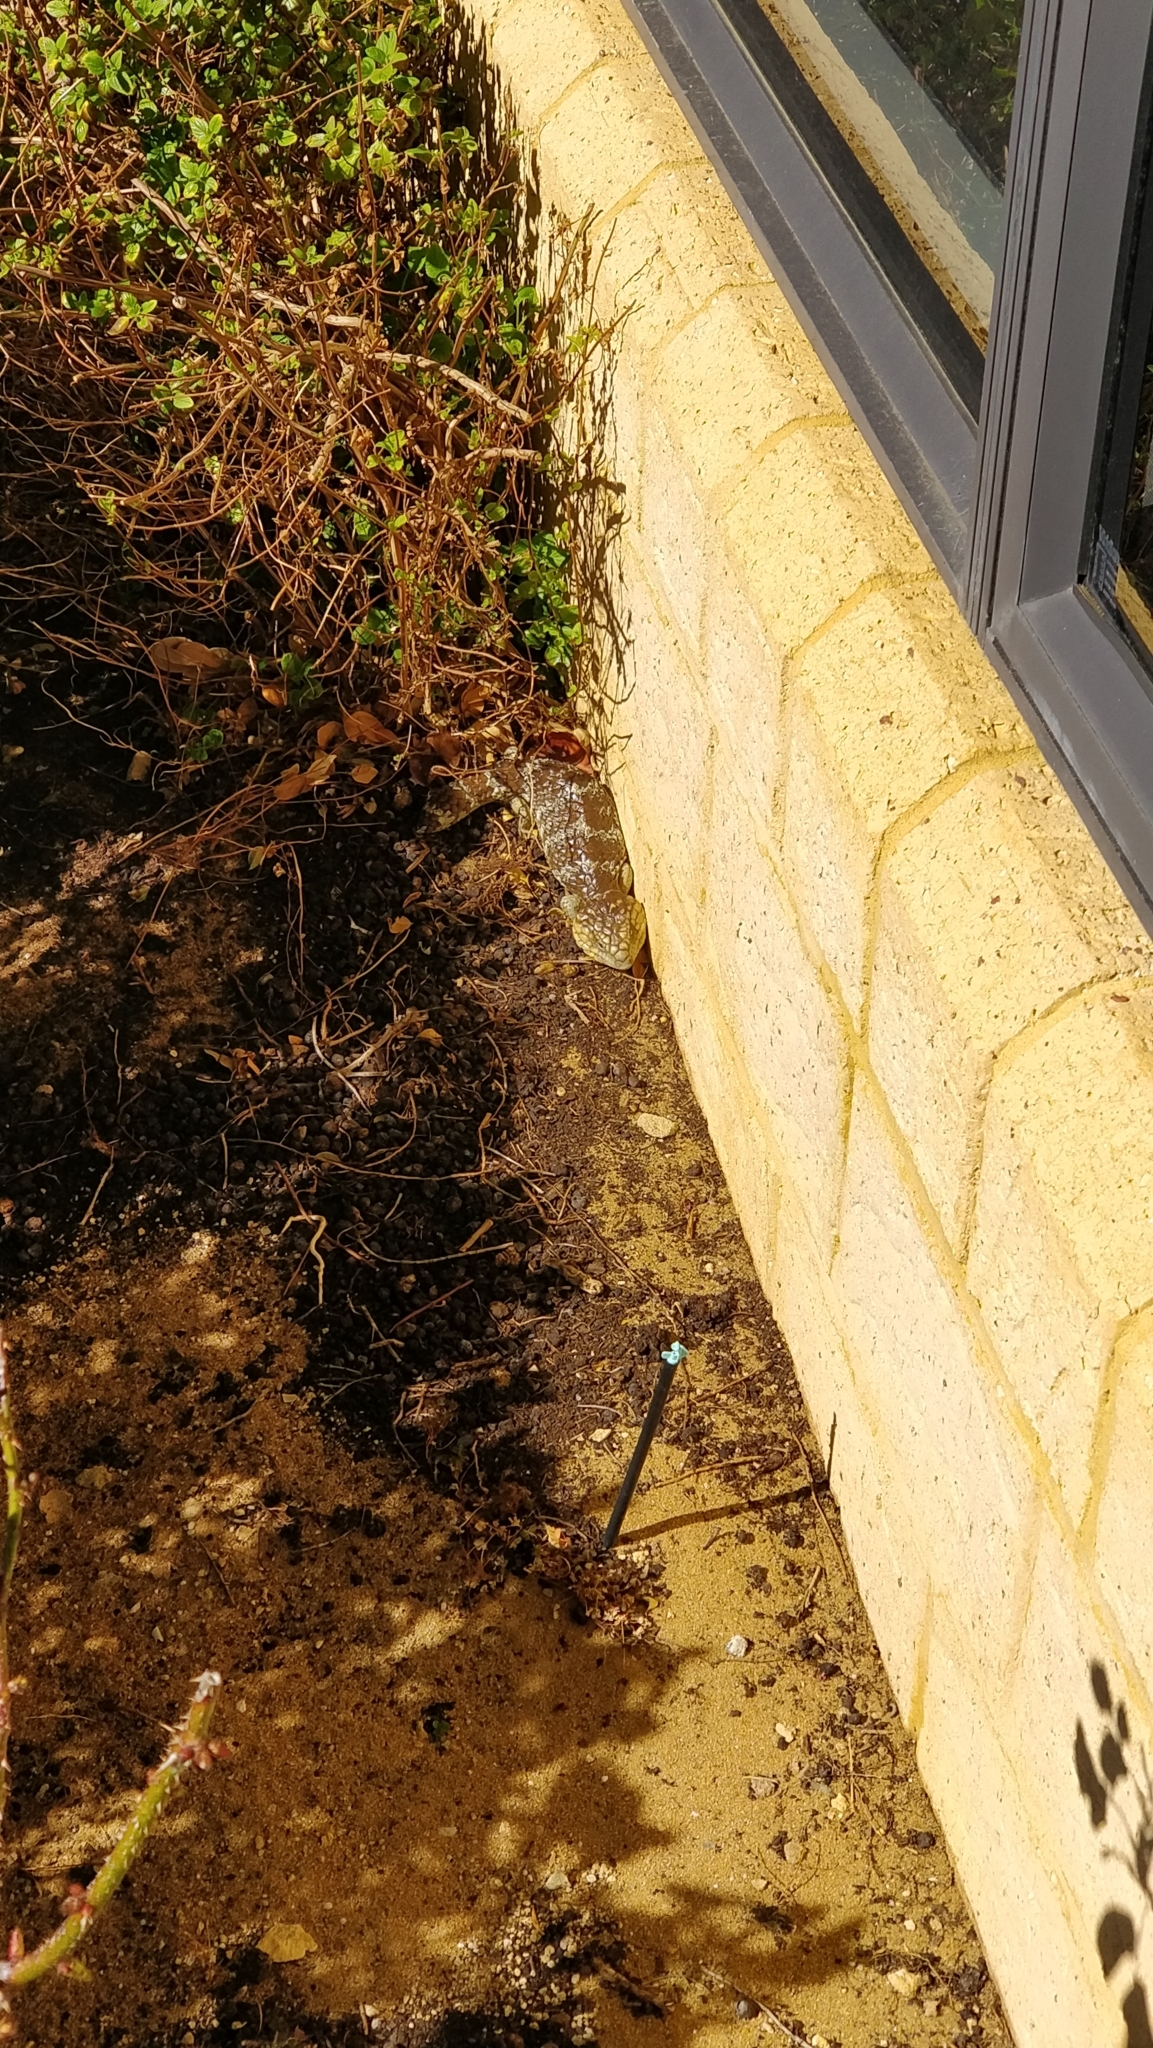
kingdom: Animalia
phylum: Chordata
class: Squamata
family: Scincidae
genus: Tiliqua
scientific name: Tiliqua rugosa
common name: Pinecone lizard
